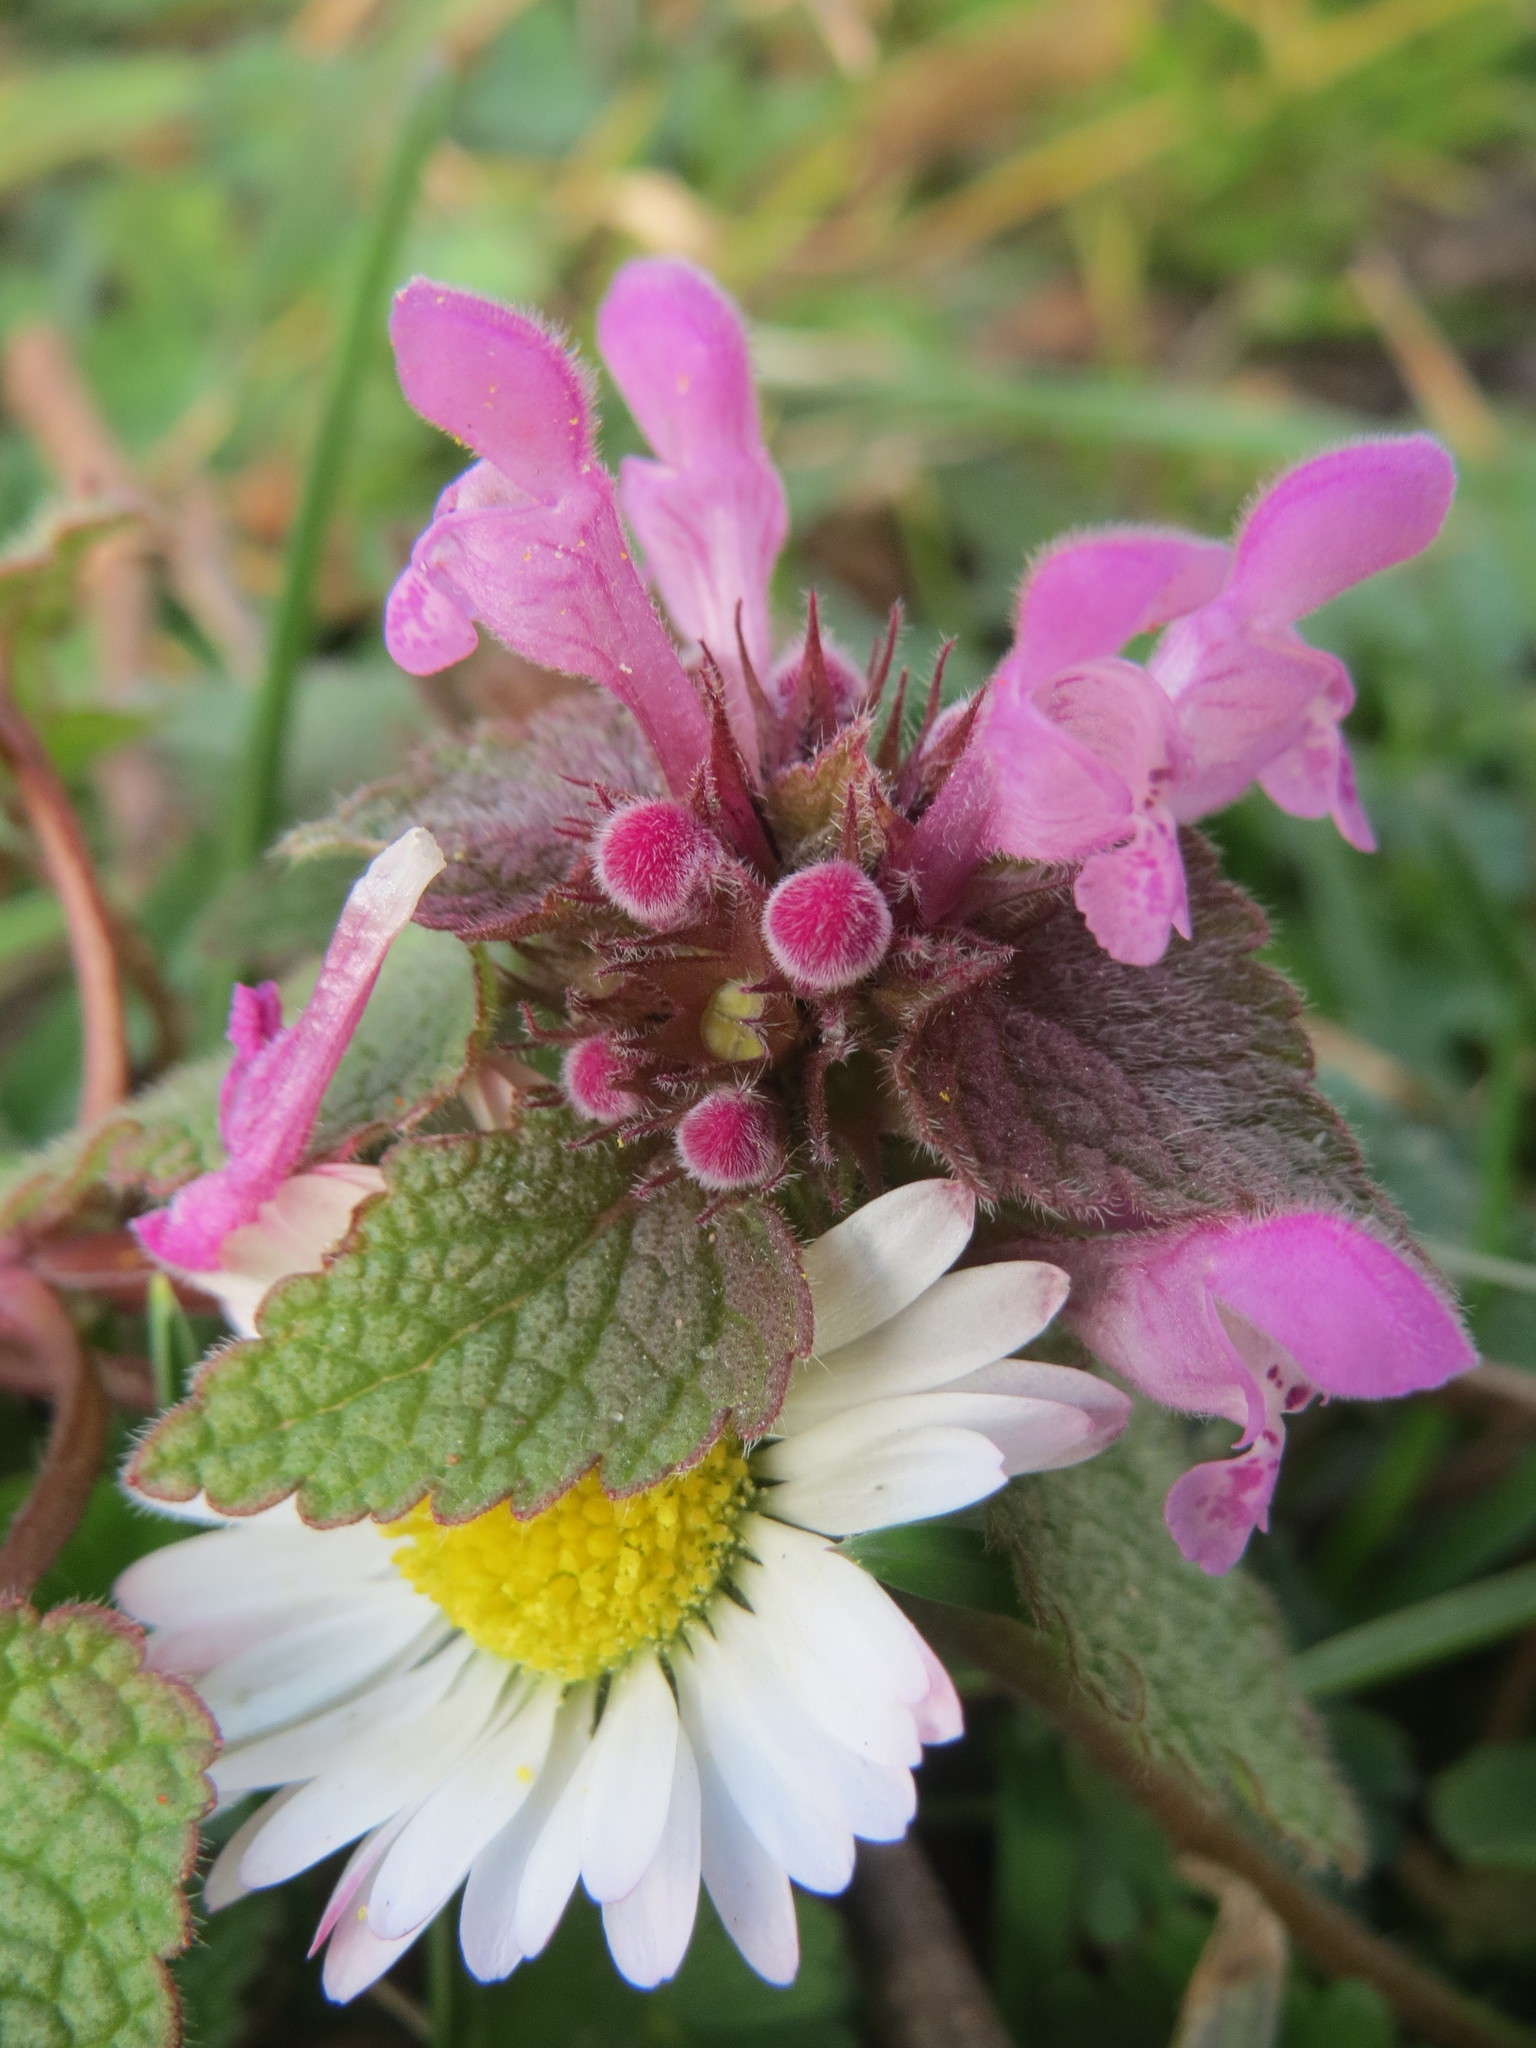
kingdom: Plantae
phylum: Tracheophyta
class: Magnoliopsida
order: Asterales
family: Asteraceae
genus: Bellis
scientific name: Bellis perennis
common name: Lawndaisy
